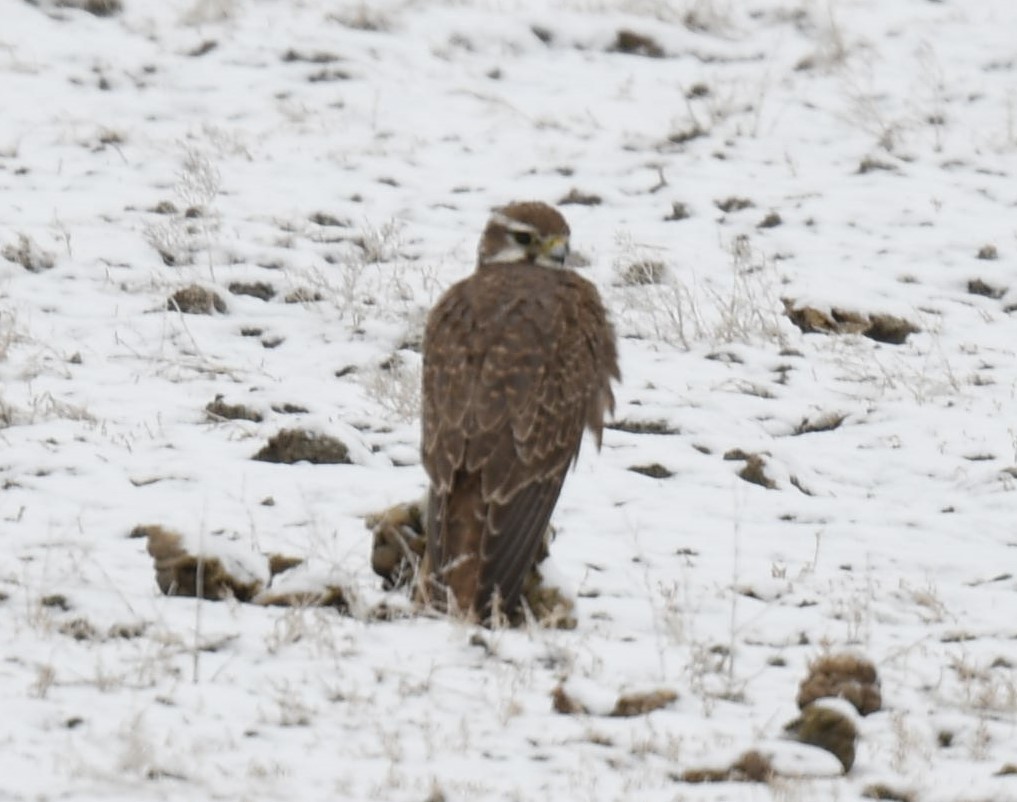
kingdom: Animalia
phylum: Chordata
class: Aves
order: Falconiformes
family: Falconidae
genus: Falco
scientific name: Falco mexicanus
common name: Prairie falcon
